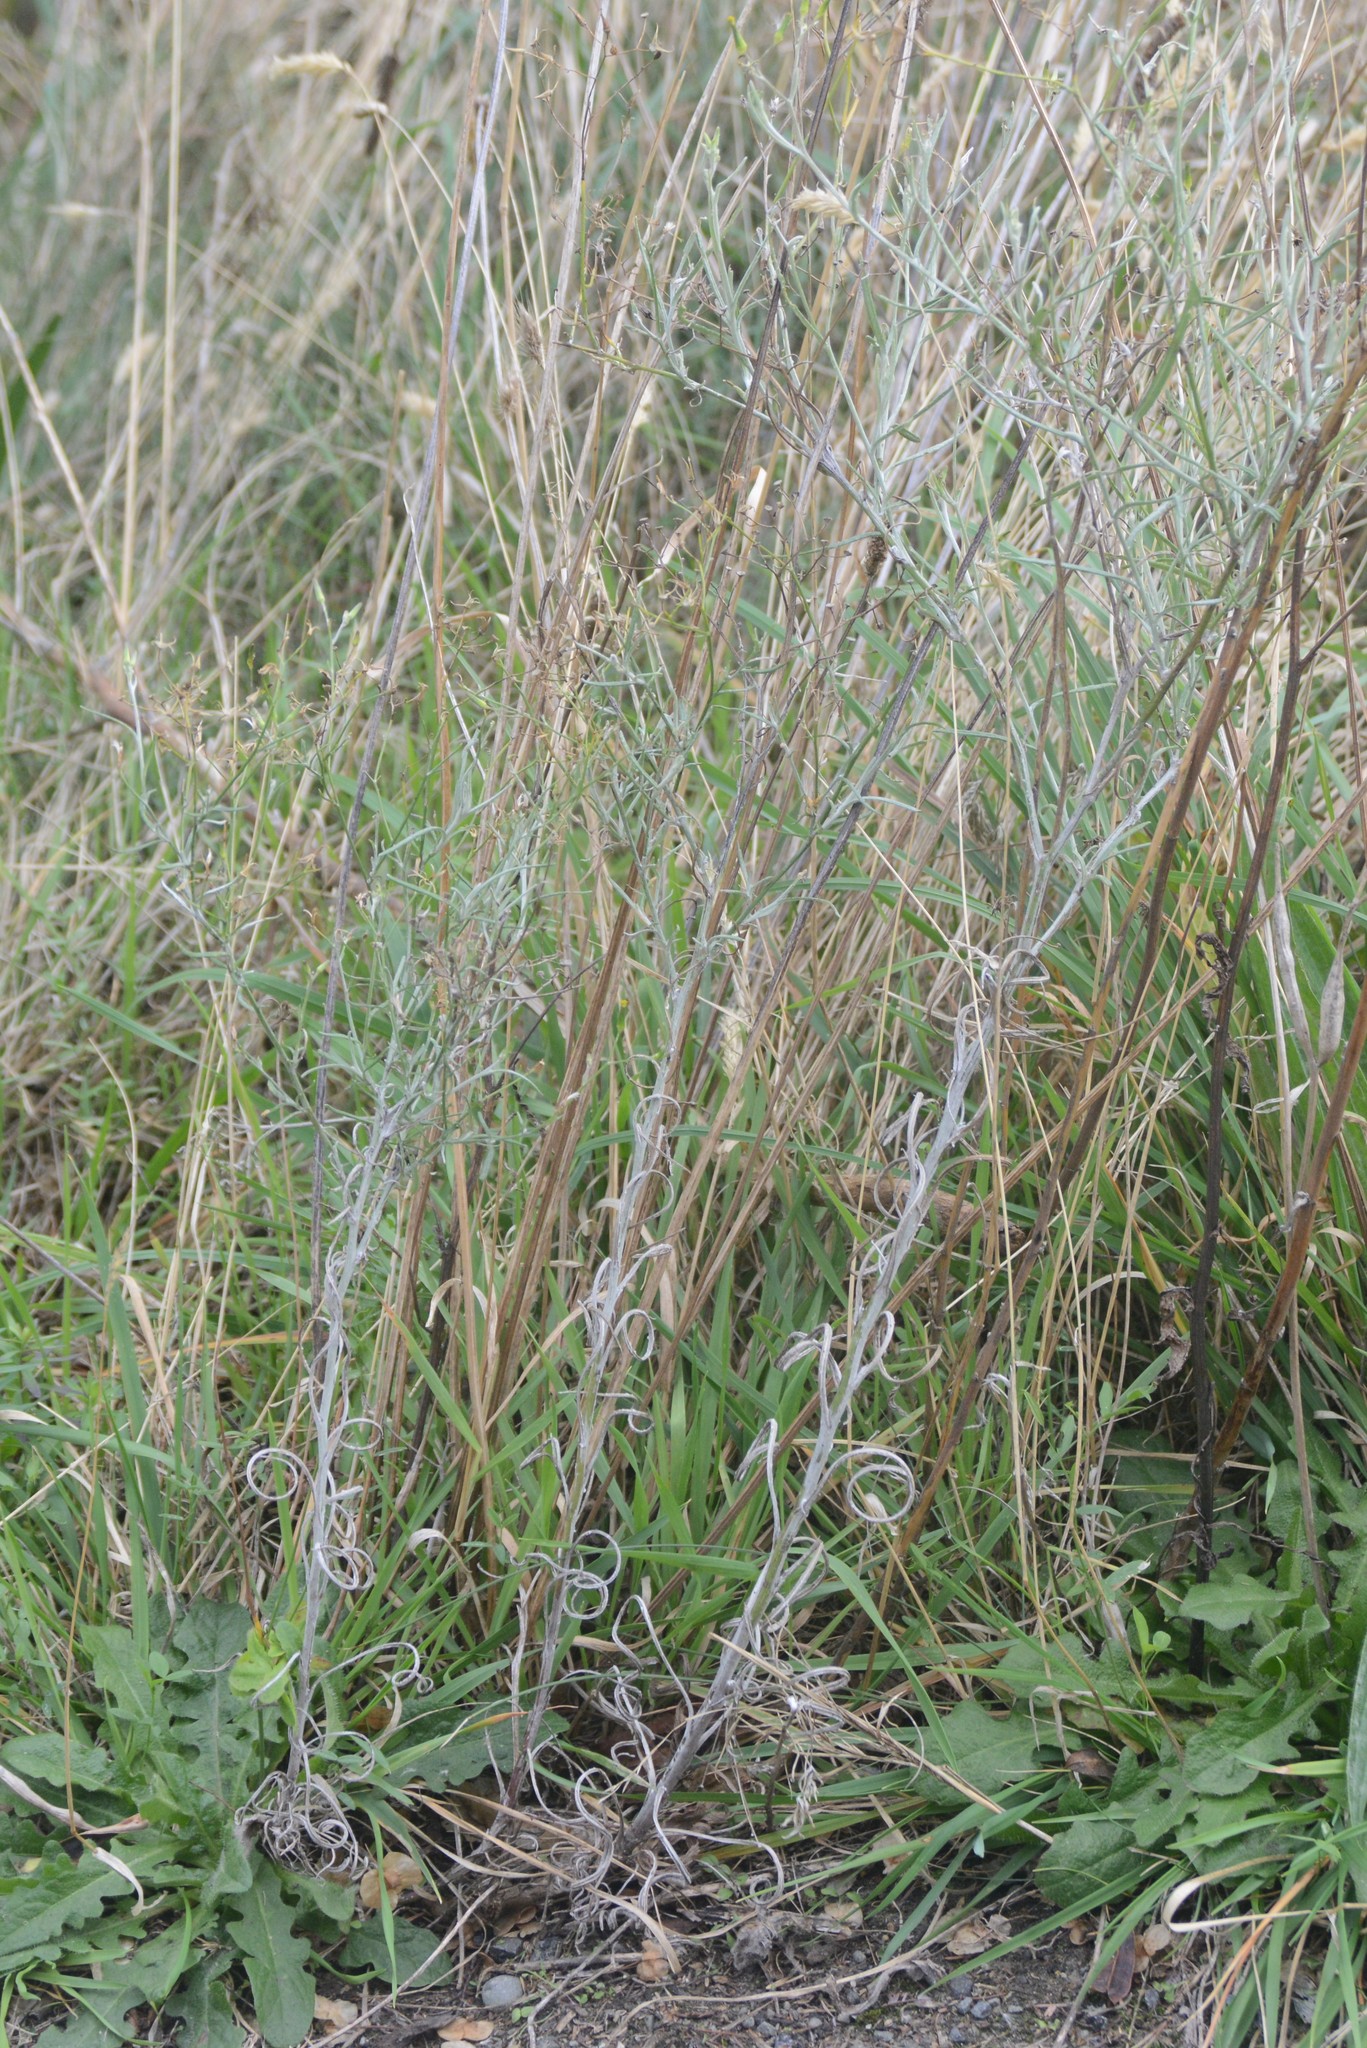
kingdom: Plantae
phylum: Tracheophyta
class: Magnoliopsida
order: Asterales
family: Asteraceae
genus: Senecio
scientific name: Senecio quadridentatus
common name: Cotton fireweed
